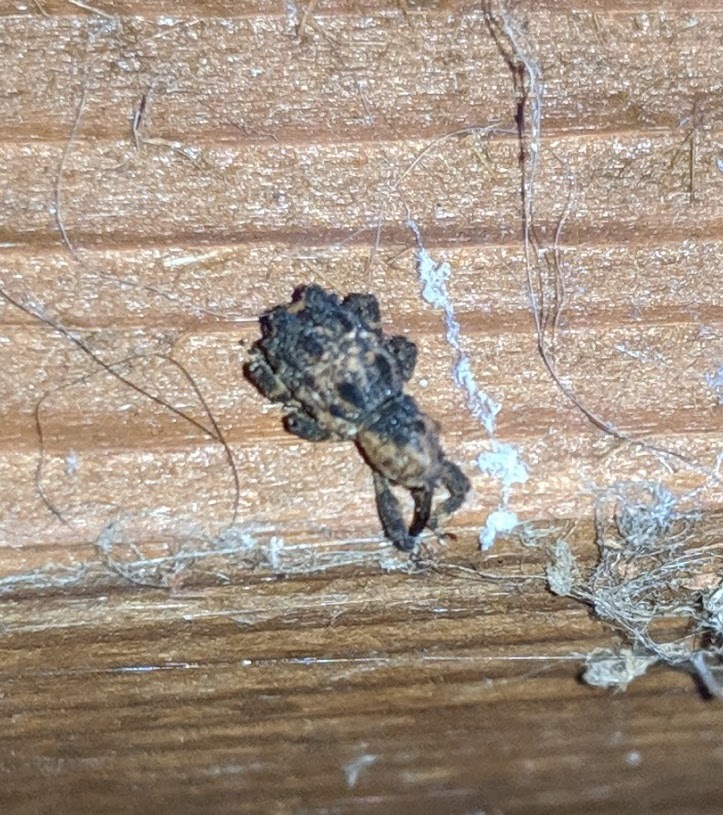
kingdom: Animalia
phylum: Arthropoda
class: Insecta
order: Coleoptera
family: Curculionidae
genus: Aparopion
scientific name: Aparopion horridus
